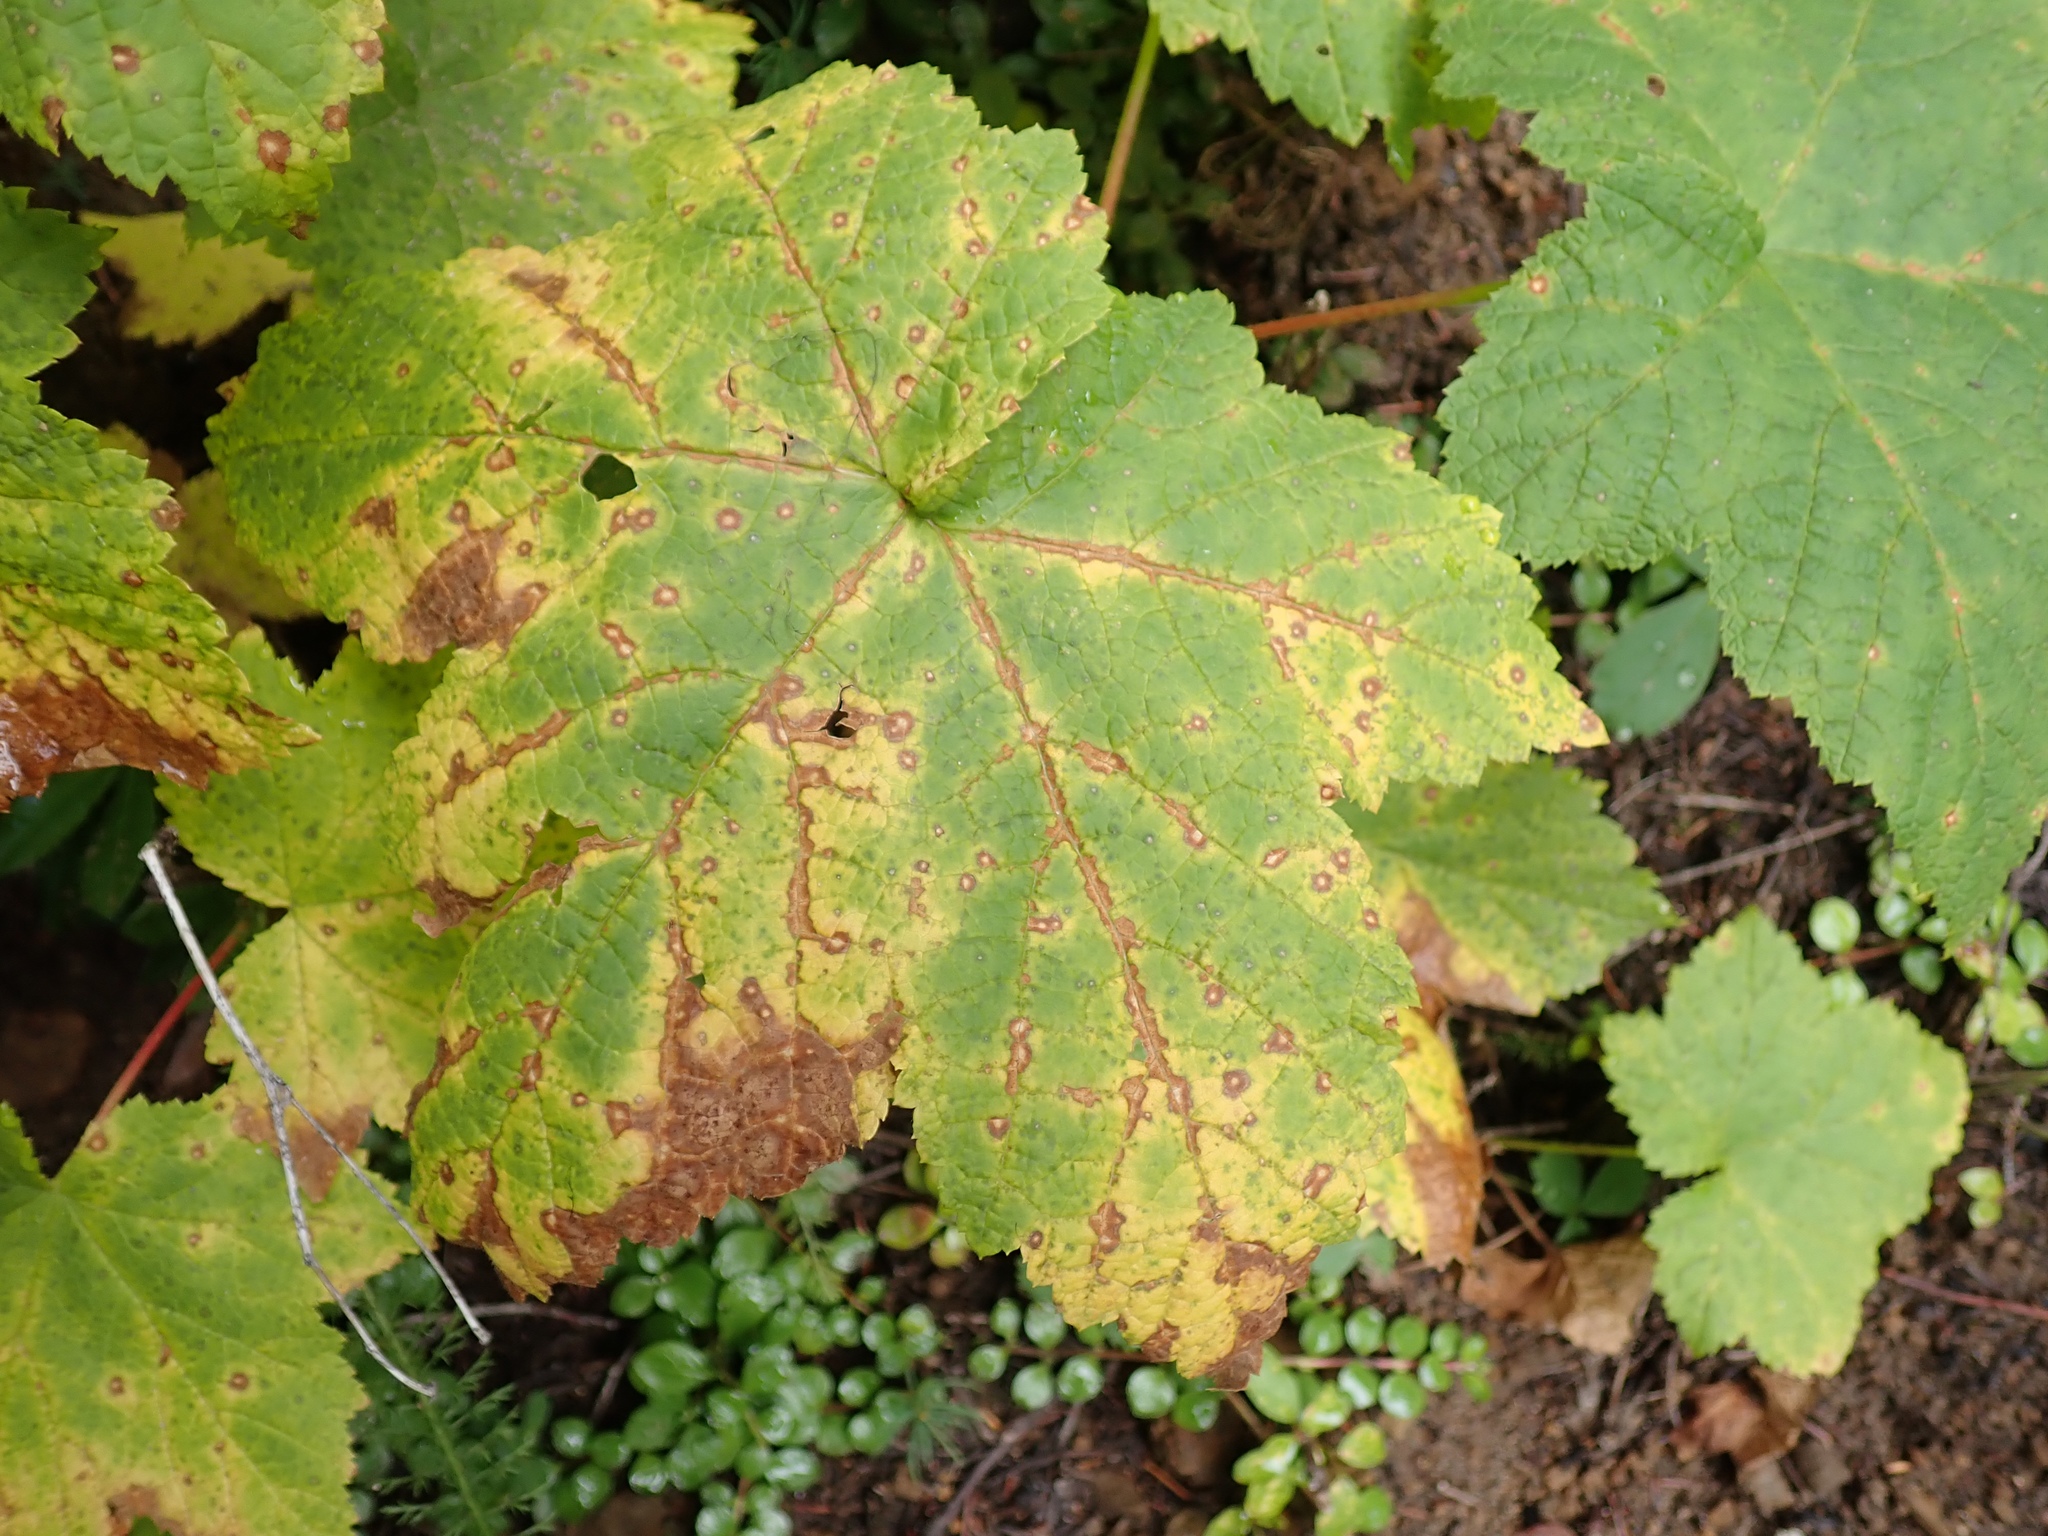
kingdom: Plantae
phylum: Tracheophyta
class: Magnoliopsida
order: Rosales
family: Rosaceae
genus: Rubus
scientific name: Rubus parviflorus
